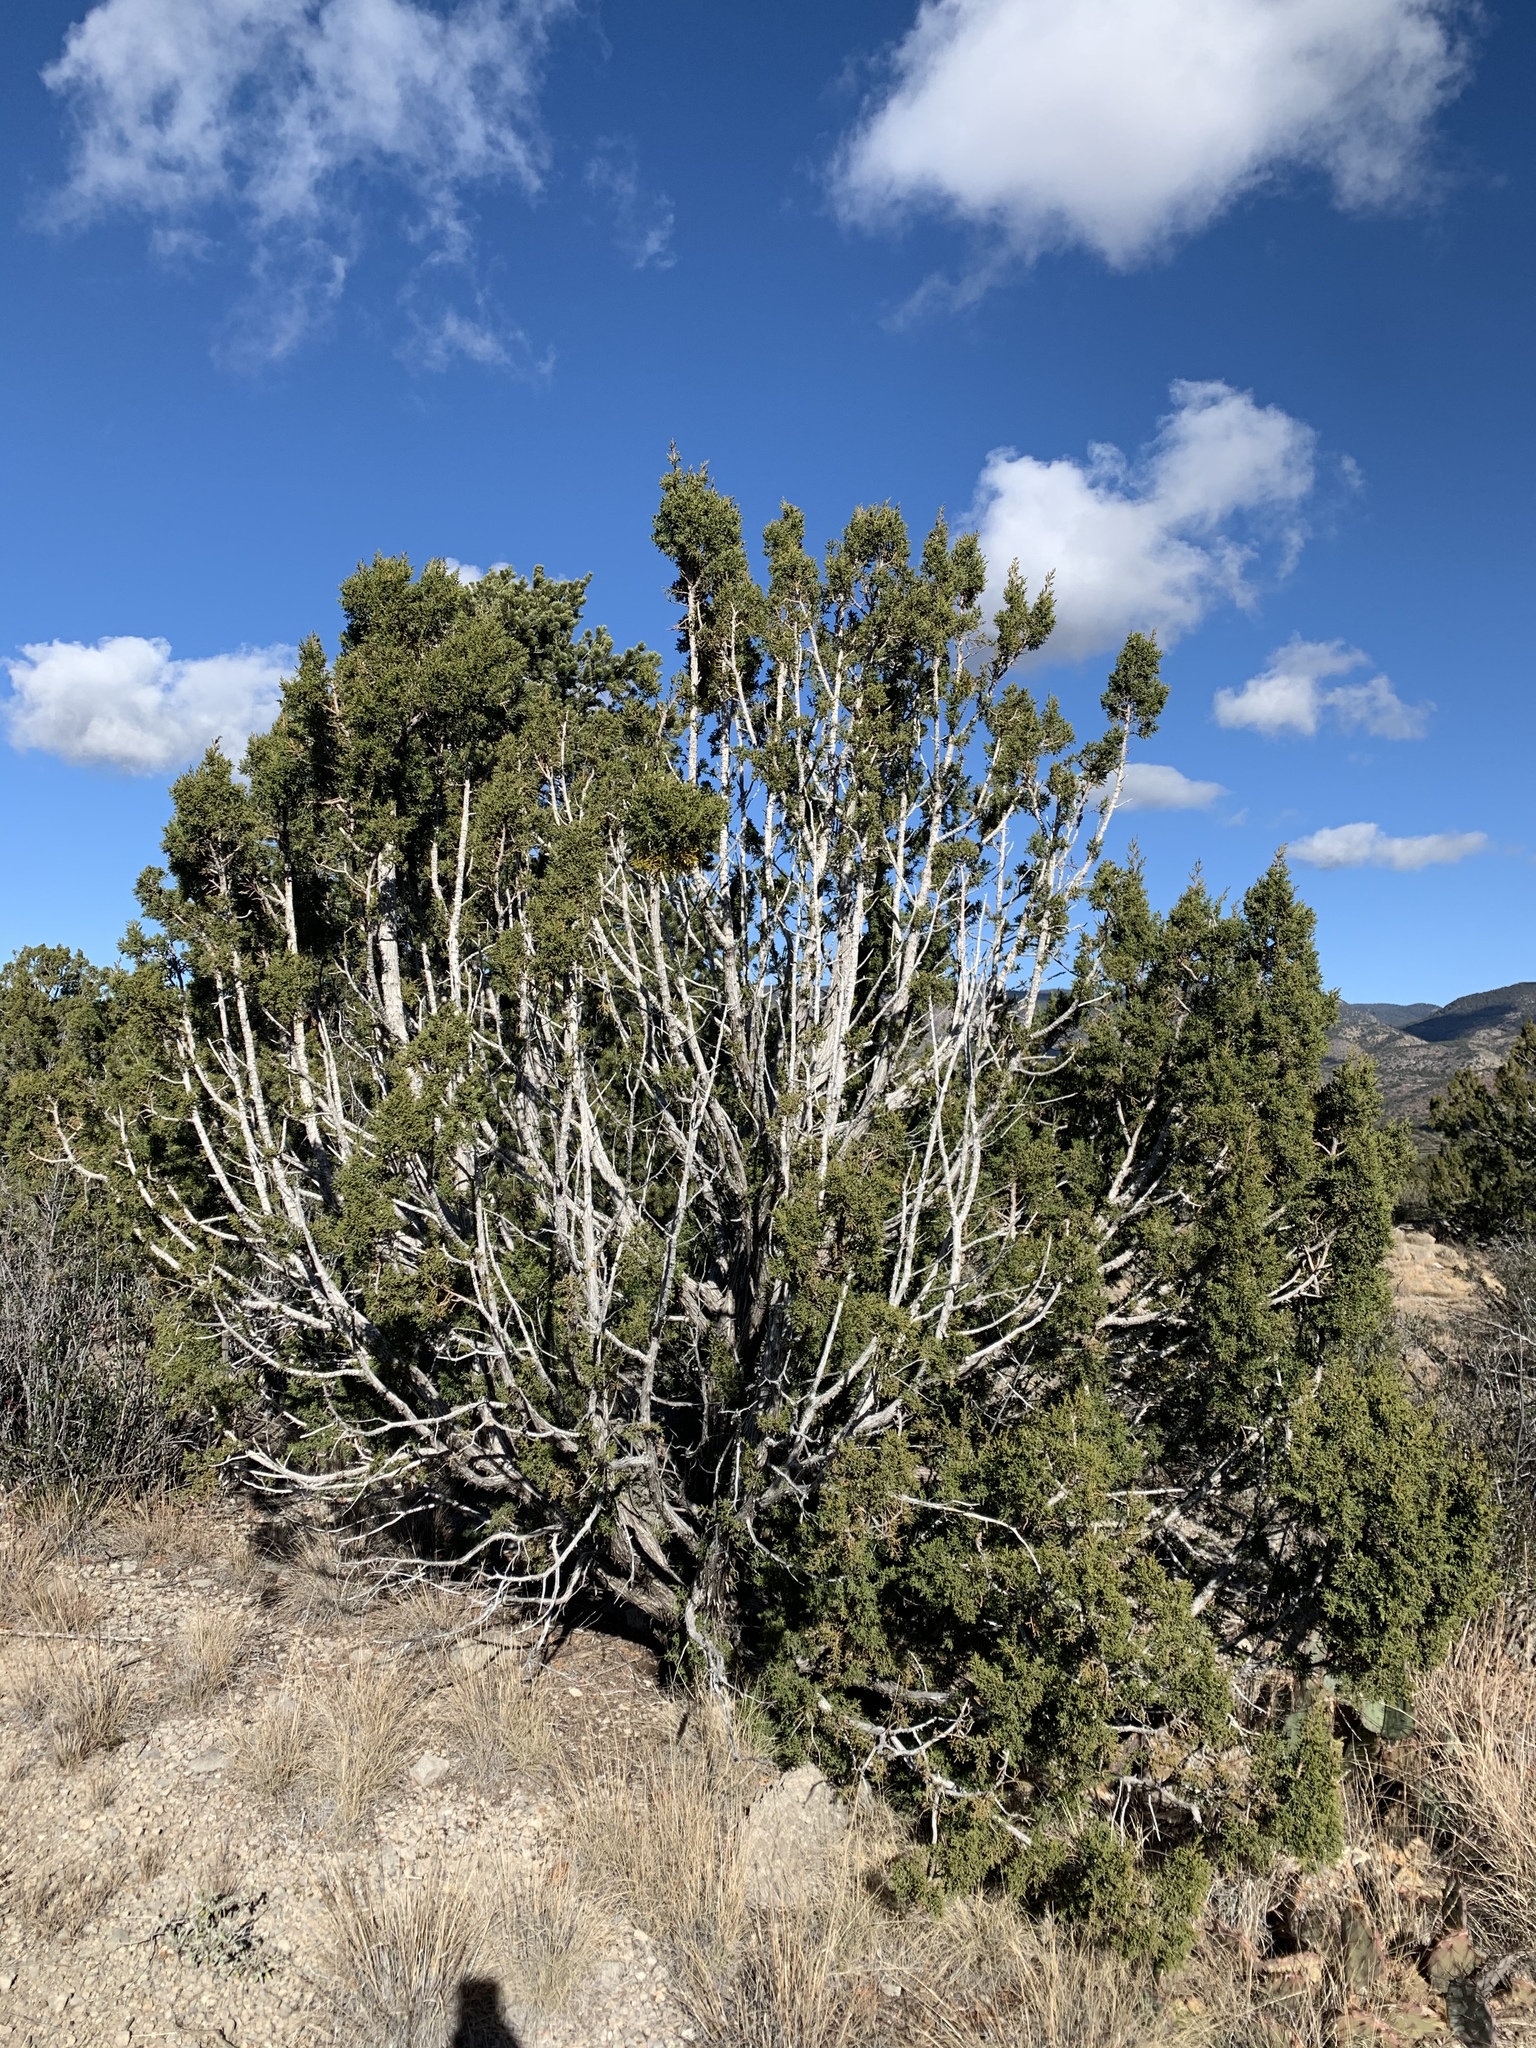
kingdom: Plantae
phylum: Tracheophyta
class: Pinopsida
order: Pinales
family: Cupressaceae
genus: Juniperus
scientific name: Juniperus monosperma
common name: One-seed juniper
